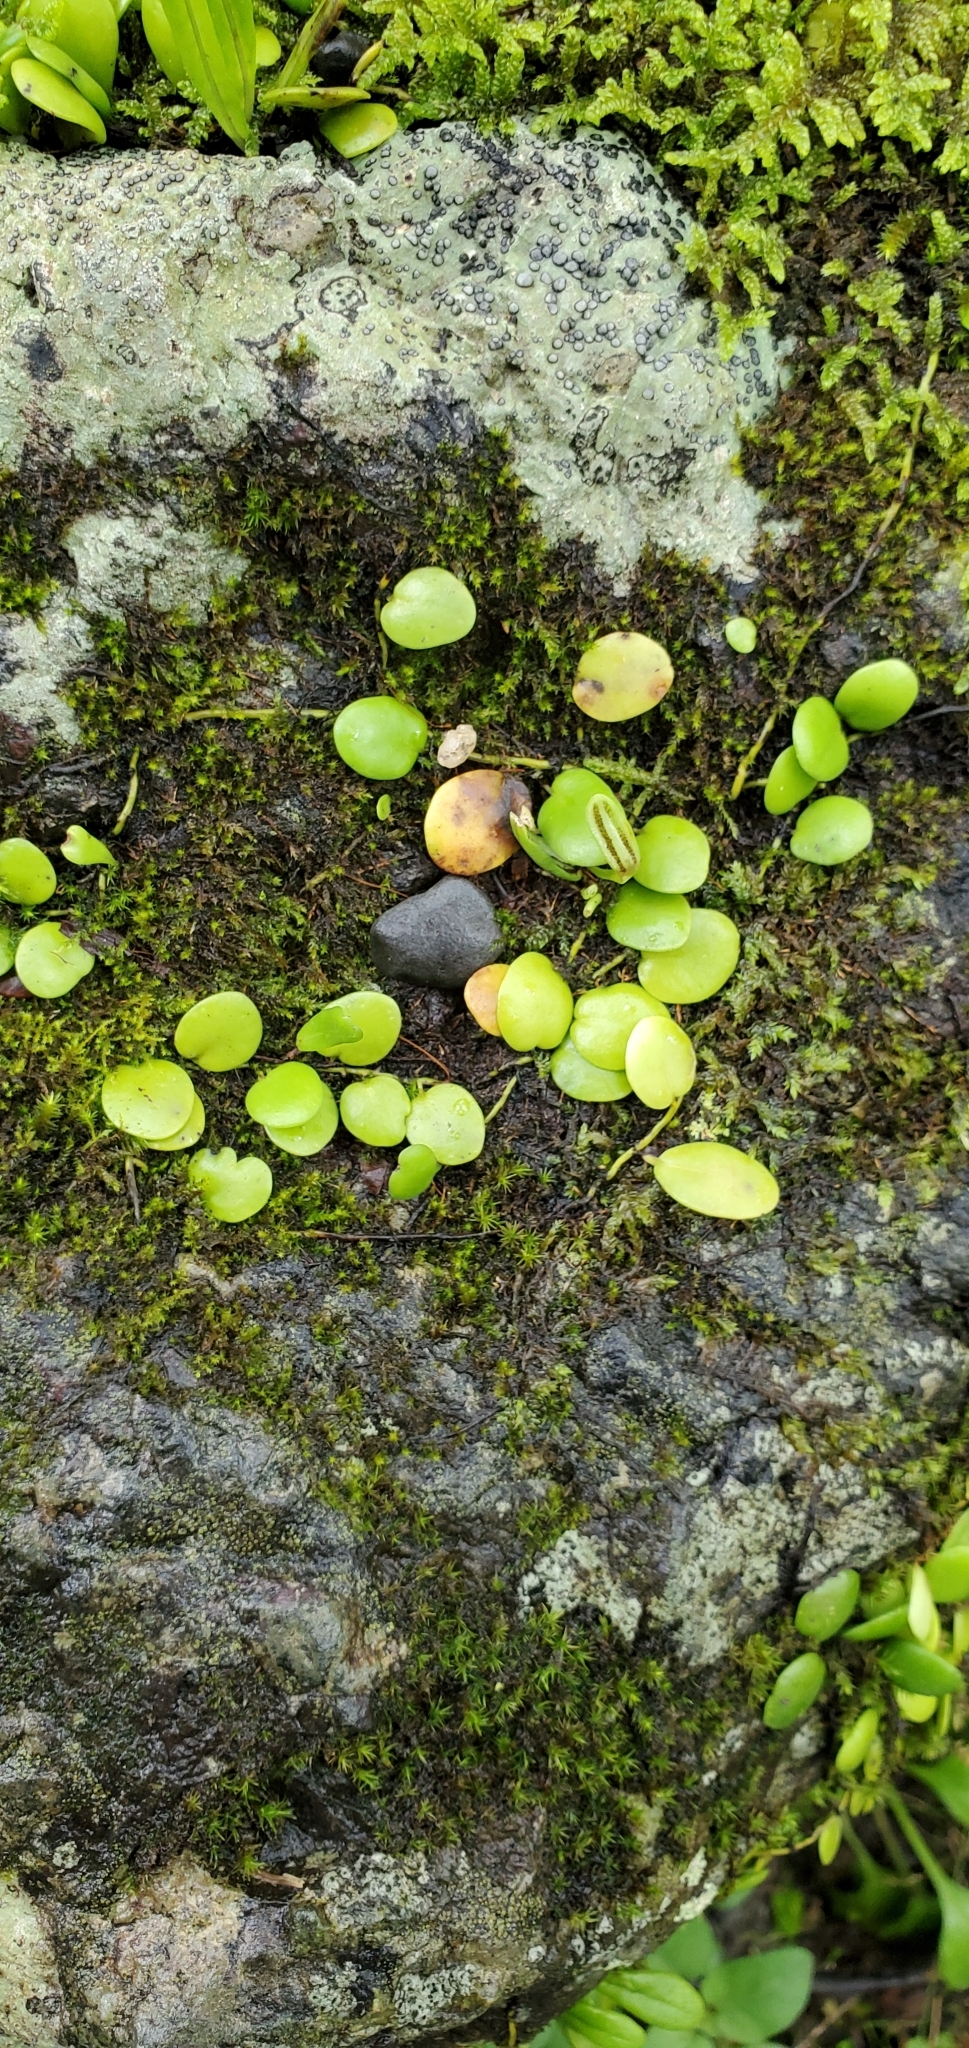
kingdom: Plantae
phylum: Tracheophyta
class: Polypodiopsida
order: Polypodiales
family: Polypodiaceae
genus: Lepisorus
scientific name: Lepisorus microphyllus
